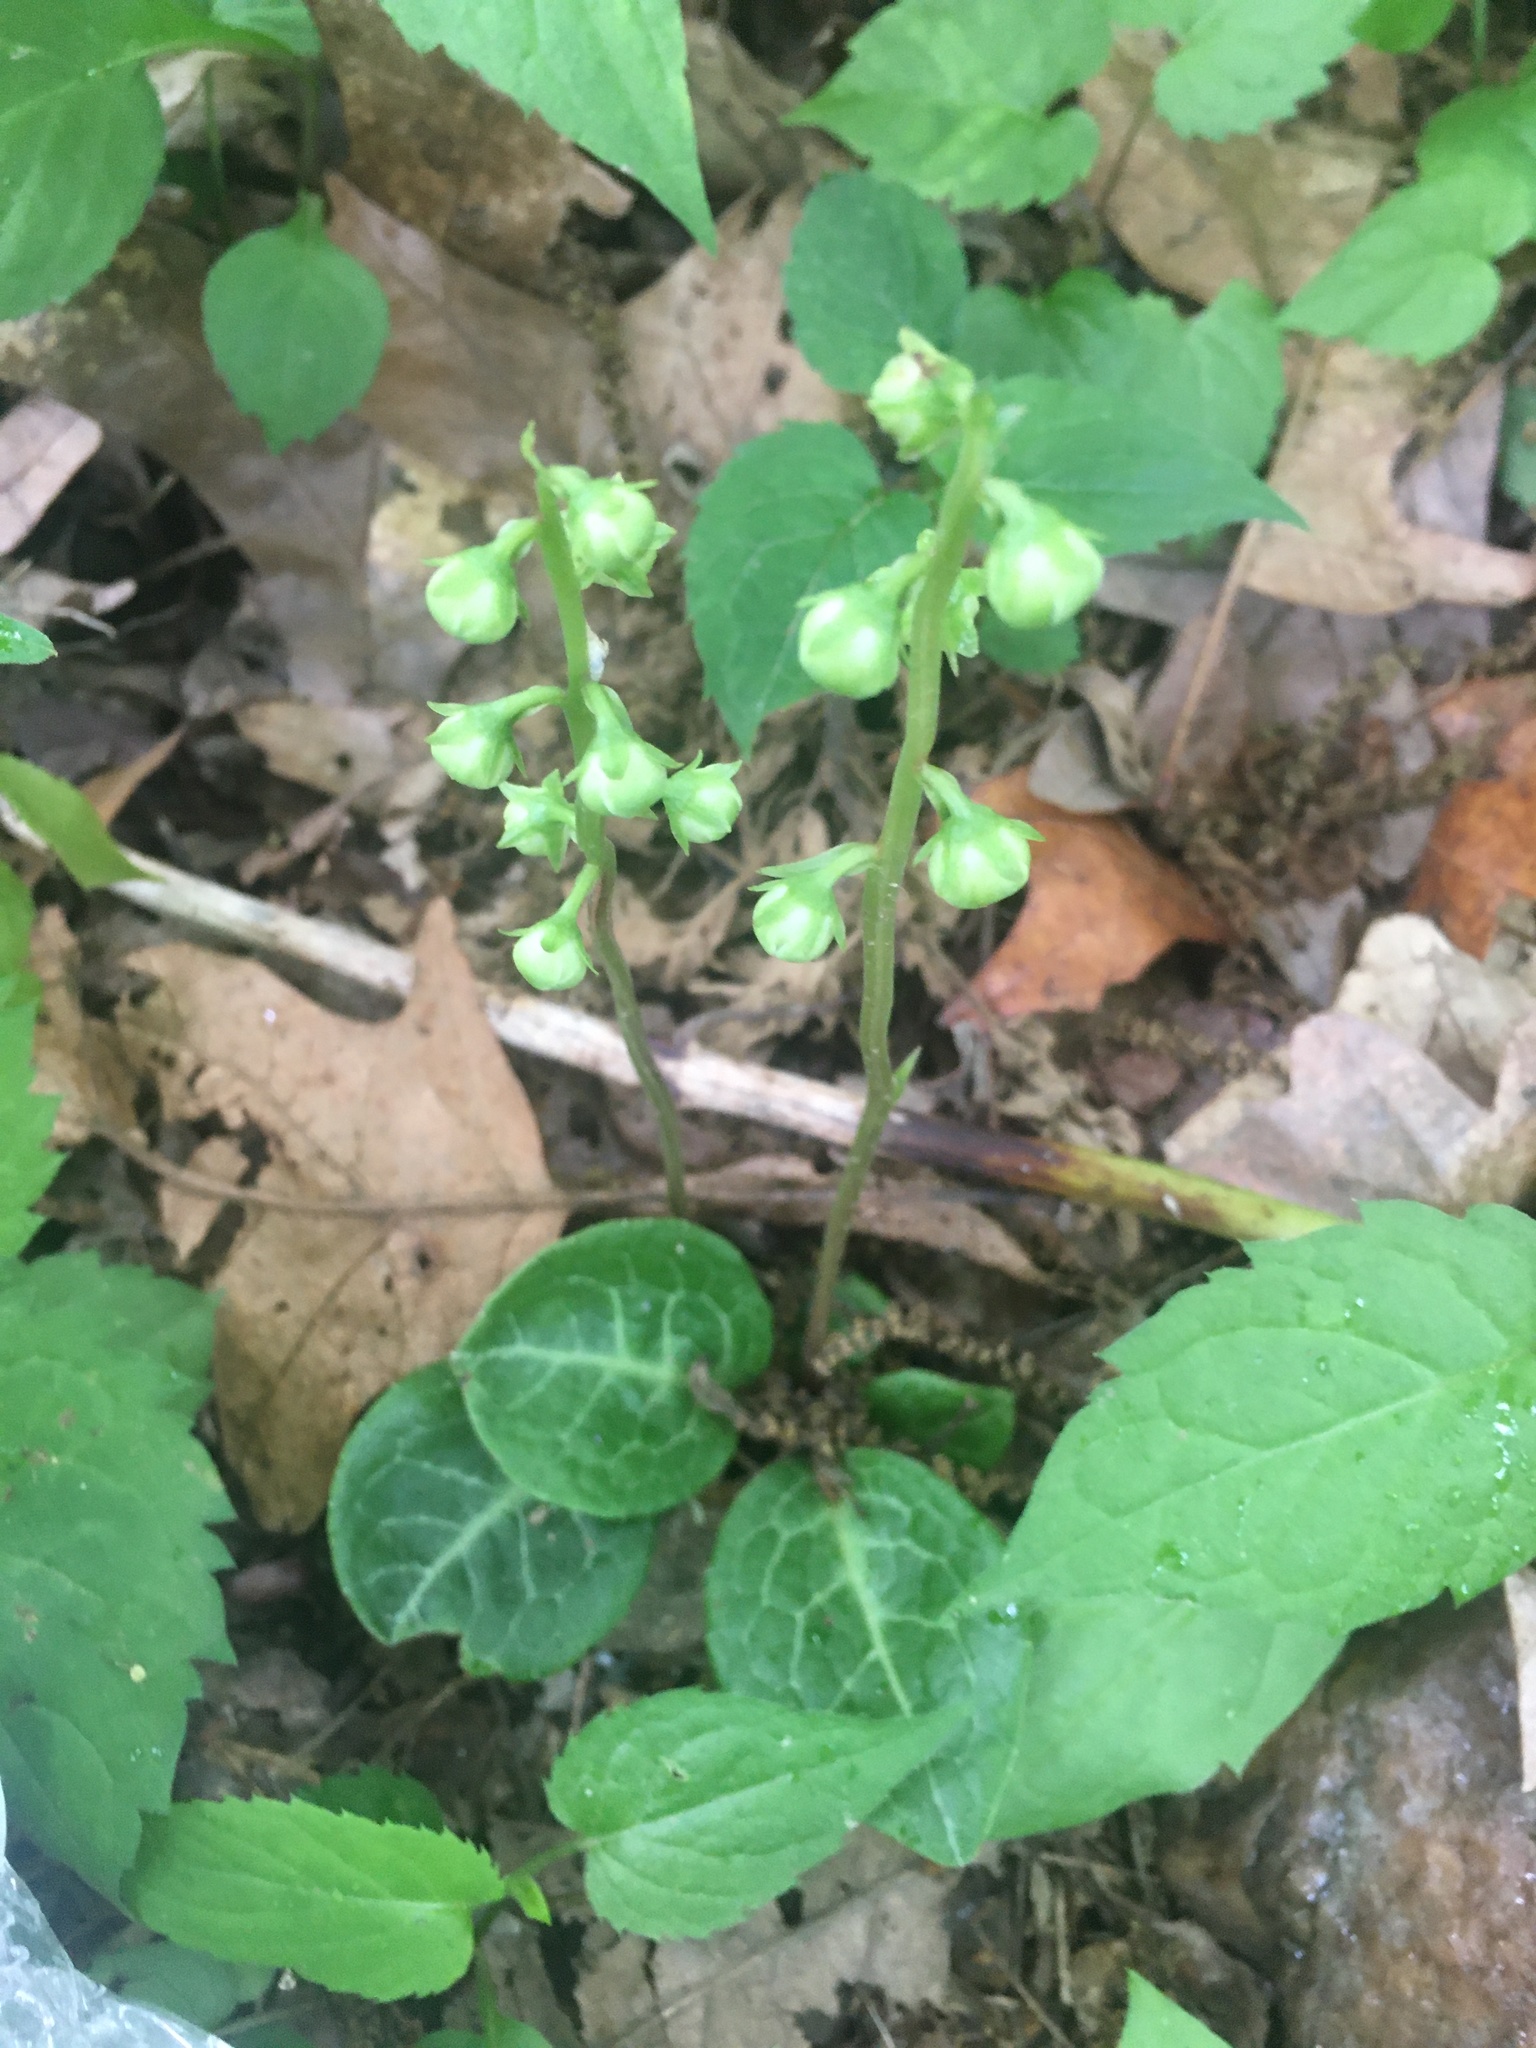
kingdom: Plantae
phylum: Tracheophyta
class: Magnoliopsida
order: Ericales
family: Ericaceae
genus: Pyrola
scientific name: Pyrola americana
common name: American wintergreen
